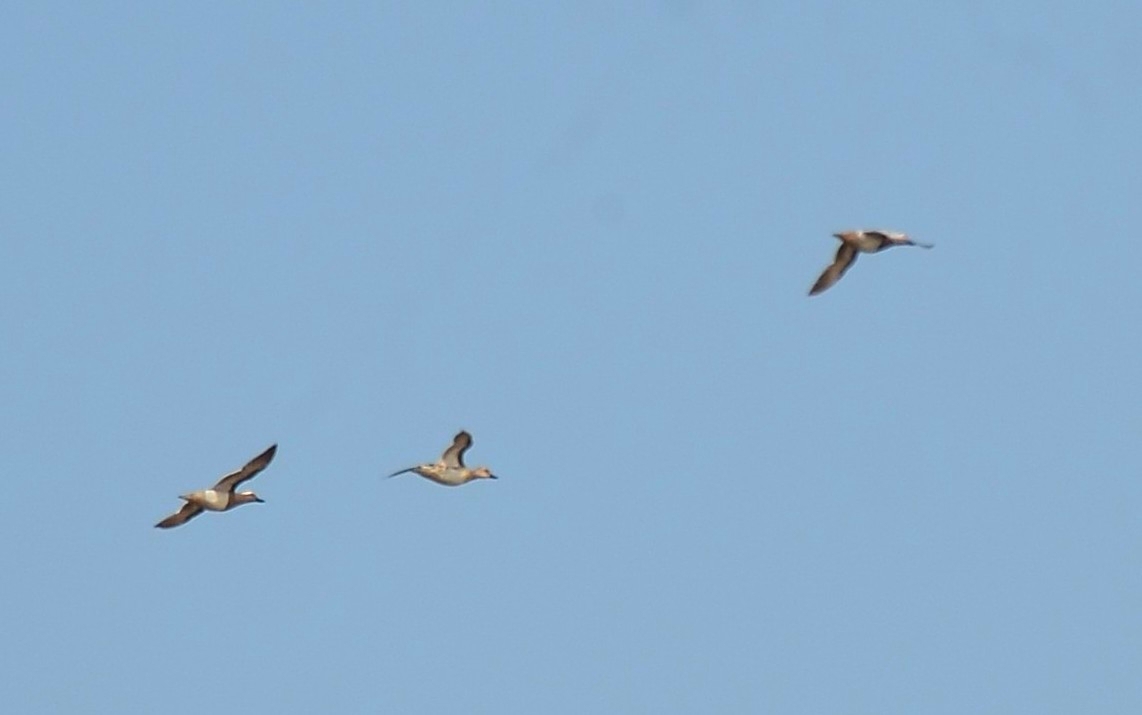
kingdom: Animalia
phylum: Chordata
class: Aves
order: Anseriformes
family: Anatidae
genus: Spatula
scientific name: Spatula querquedula
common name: Garganey
